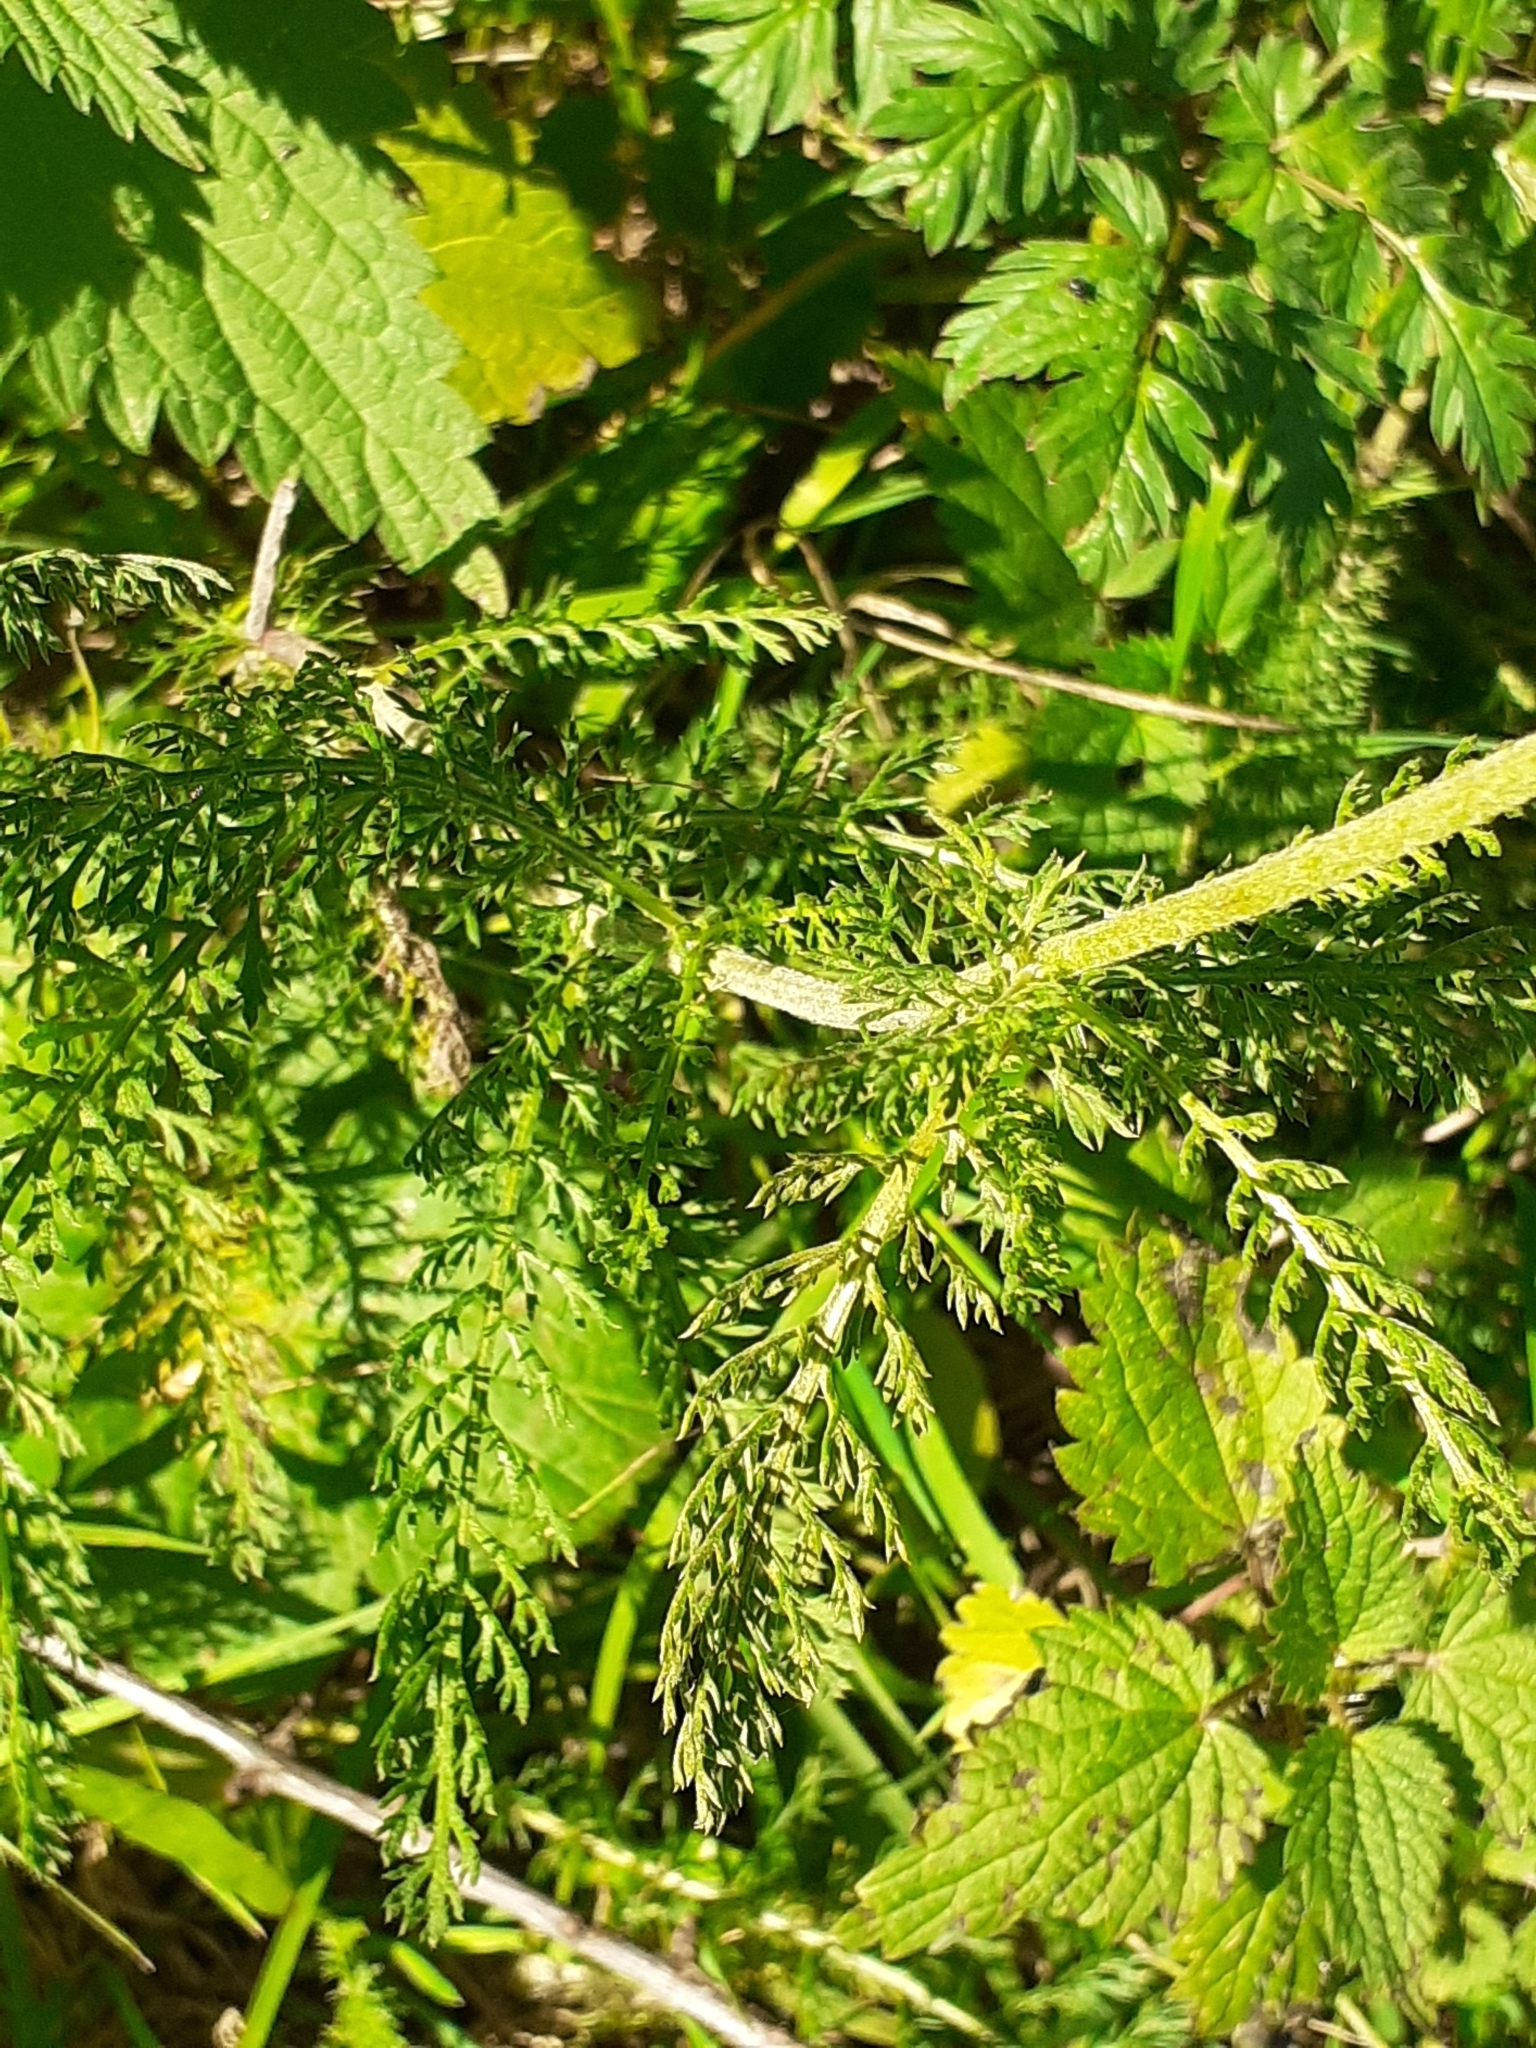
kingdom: Plantae
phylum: Tracheophyta
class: Magnoliopsida
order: Asterales
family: Asteraceae
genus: Achillea
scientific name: Achillea millefolium
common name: Yarrow
